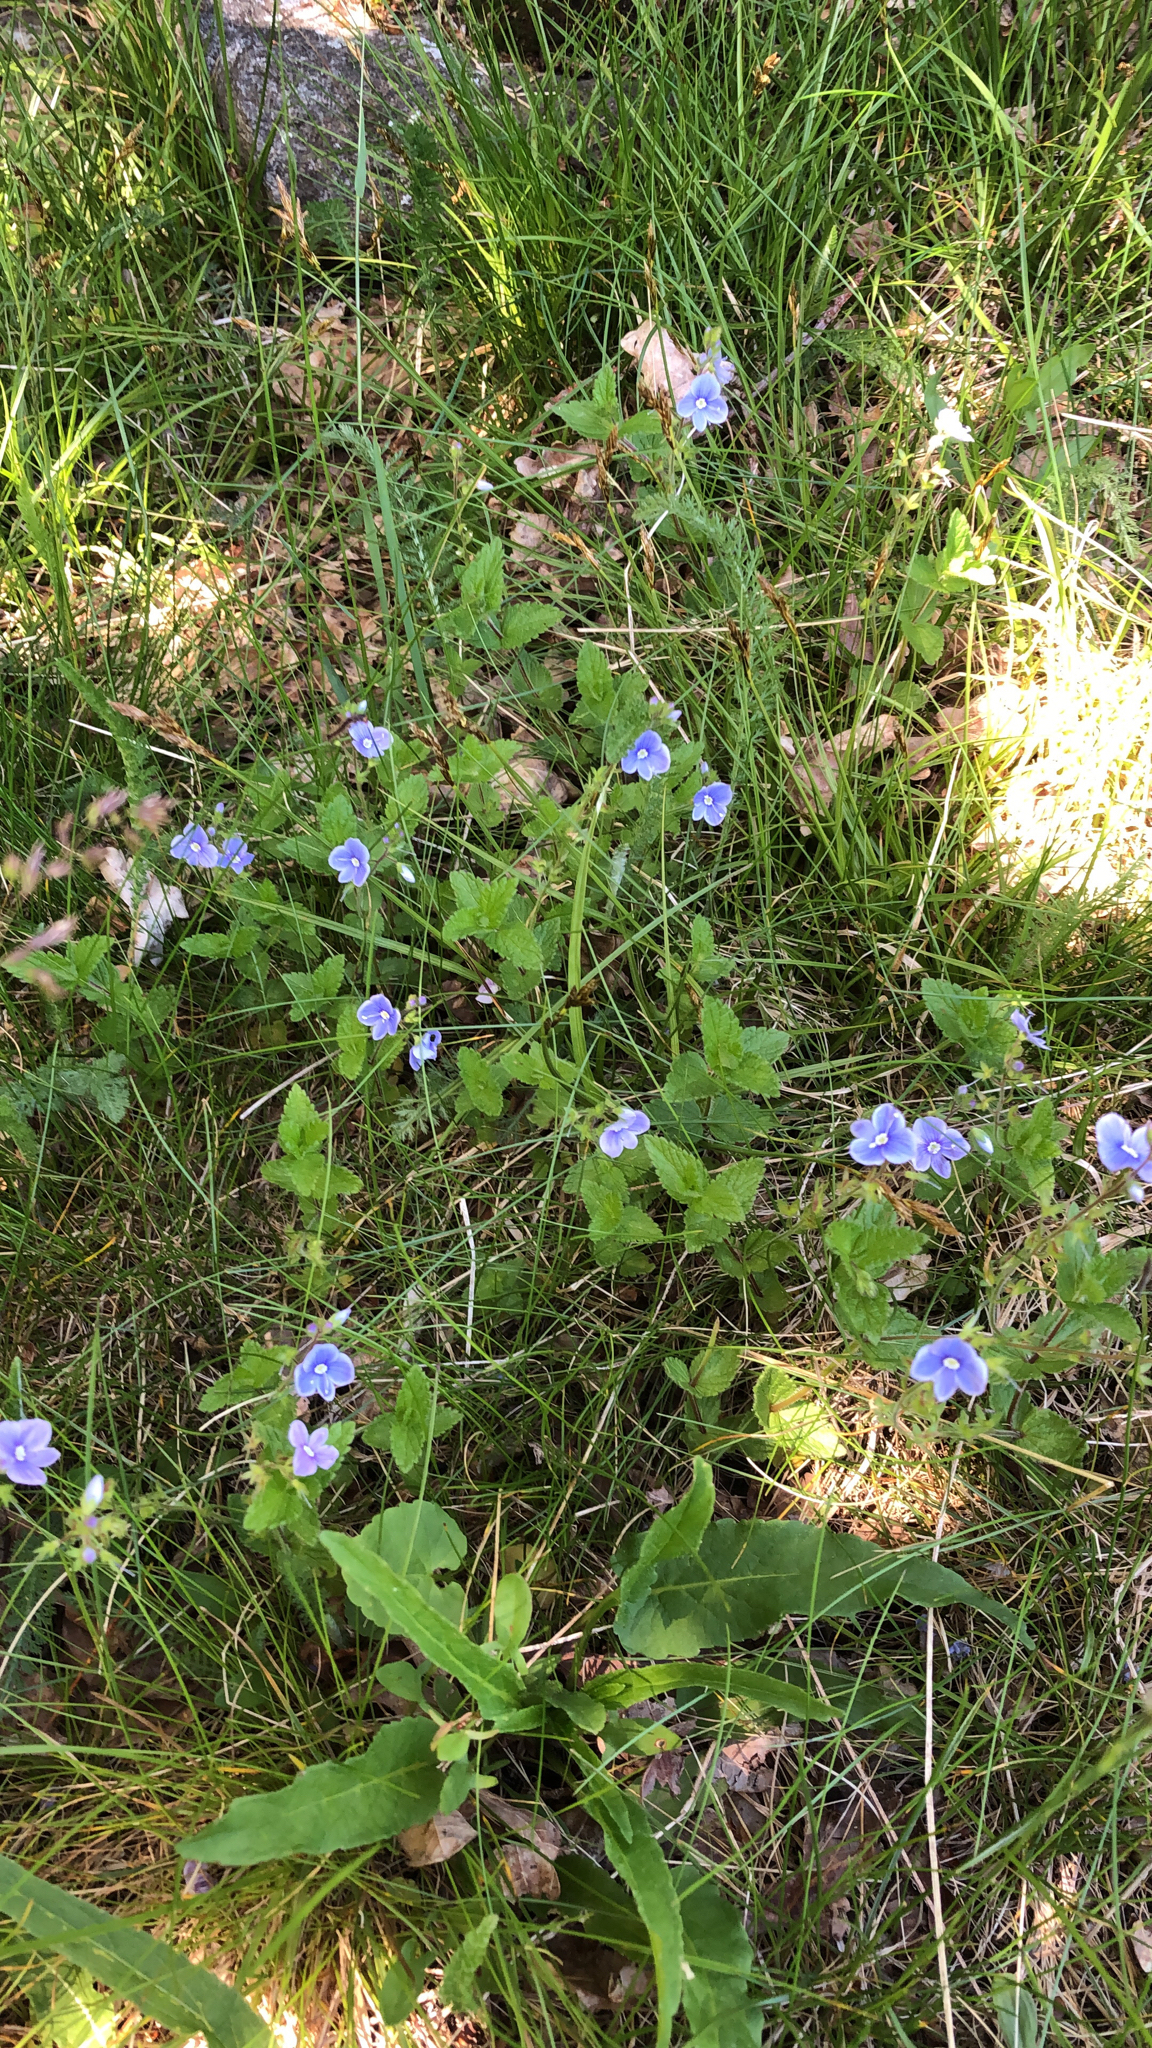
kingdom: Plantae
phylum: Tracheophyta
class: Magnoliopsida
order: Lamiales
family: Plantaginaceae
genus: Veronica
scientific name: Veronica chamaedrys
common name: Germander speedwell
